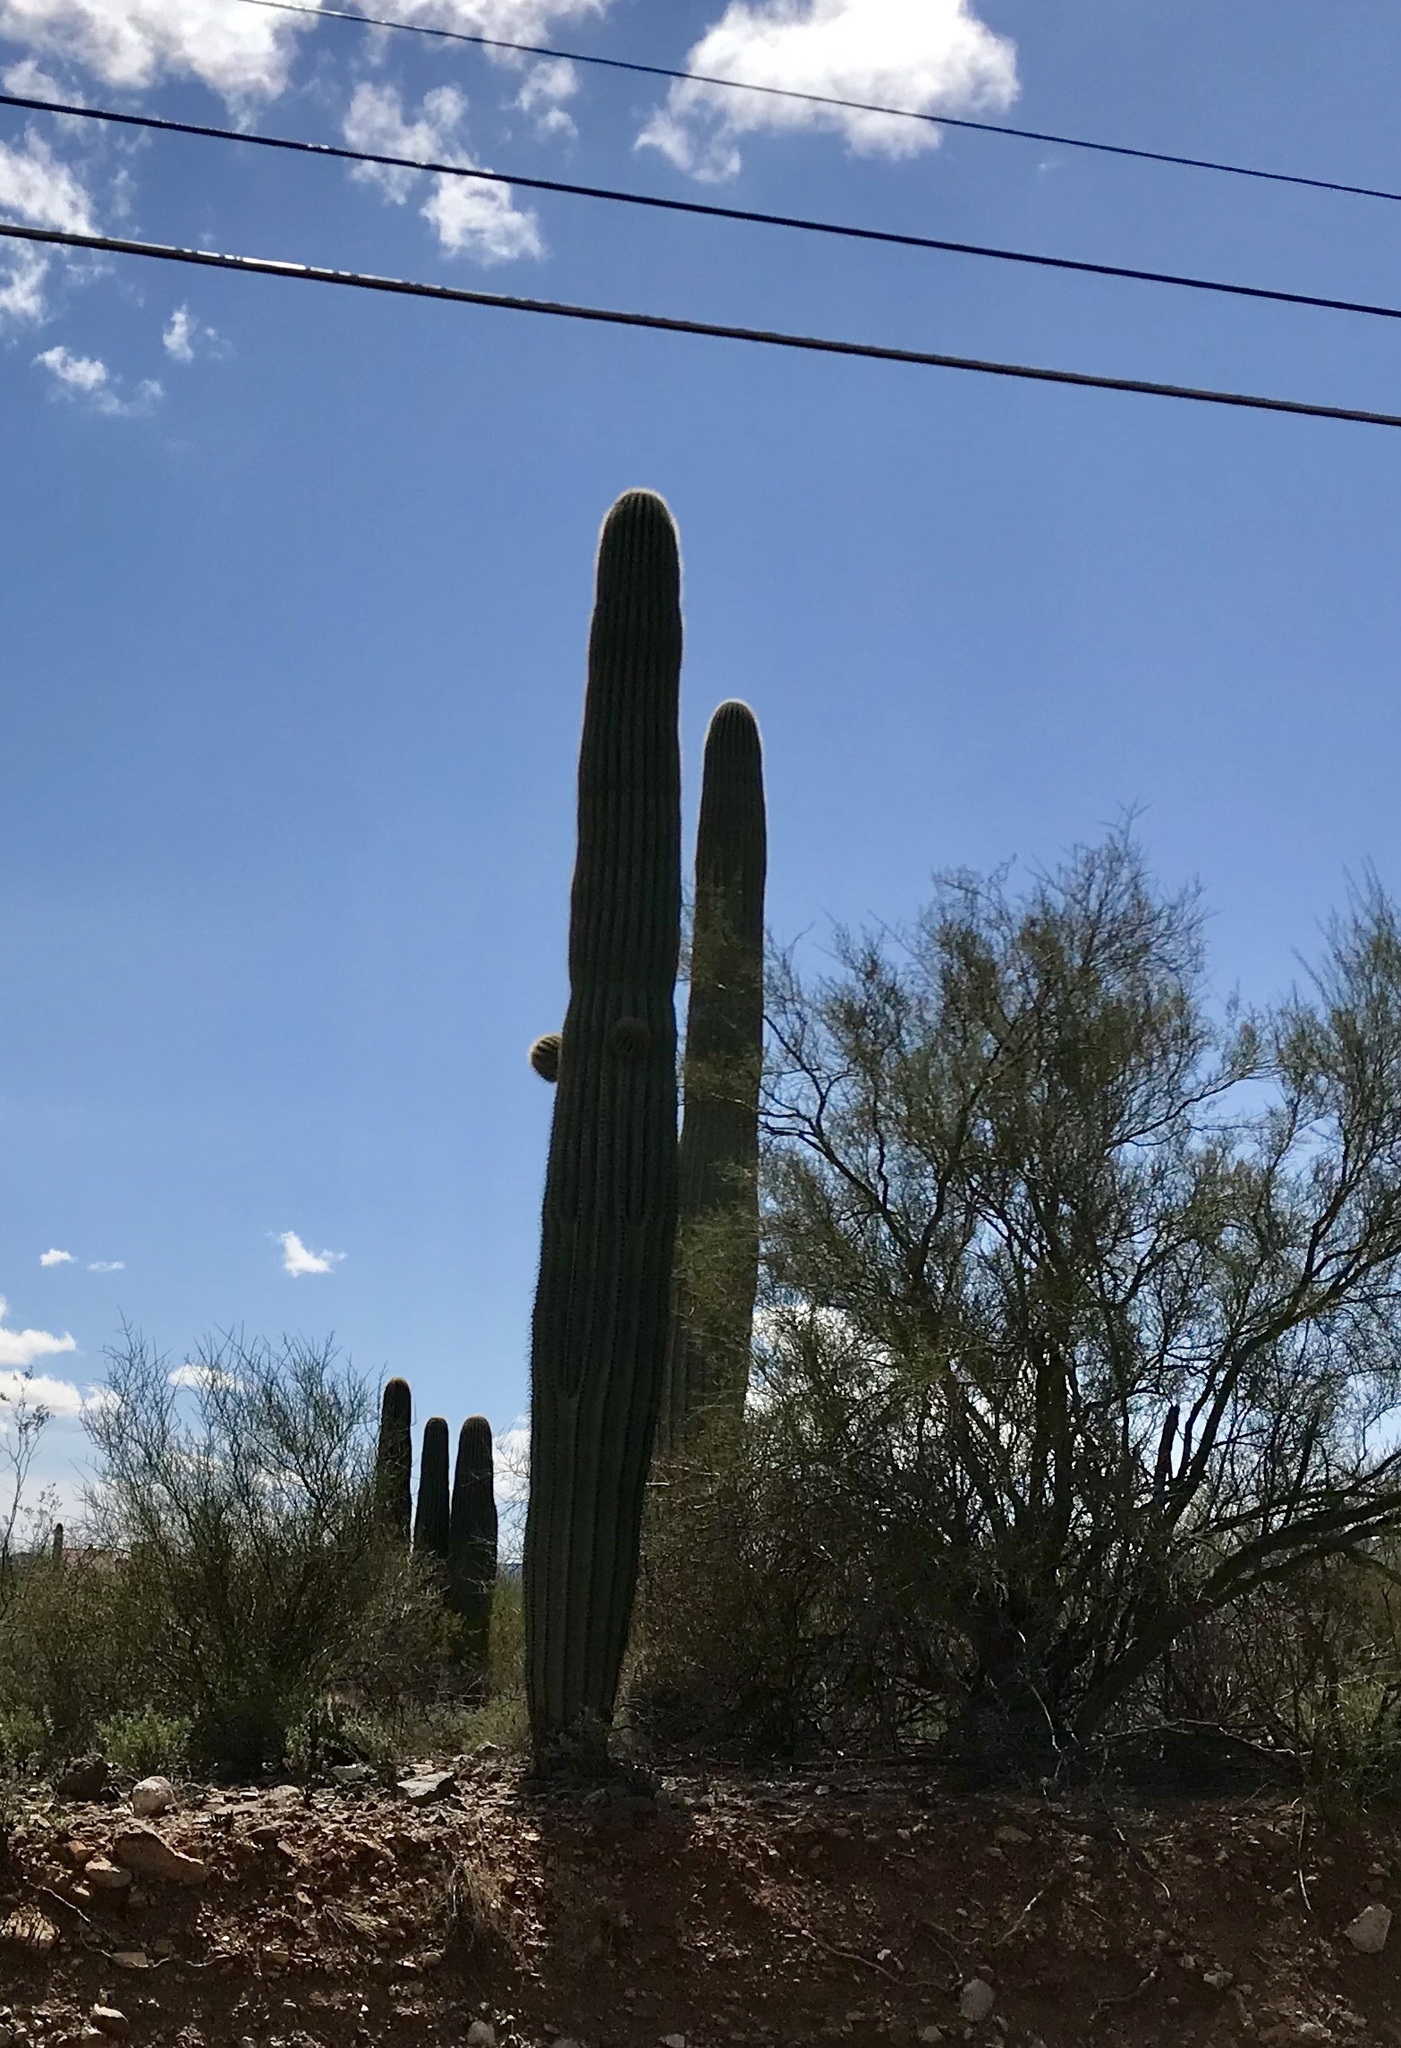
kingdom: Plantae
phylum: Tracheophyta
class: Magnoliopsida
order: Caryophyllales
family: Cactaceae
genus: Carnegiea
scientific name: Carnegiea gigantea
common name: Saguaro
